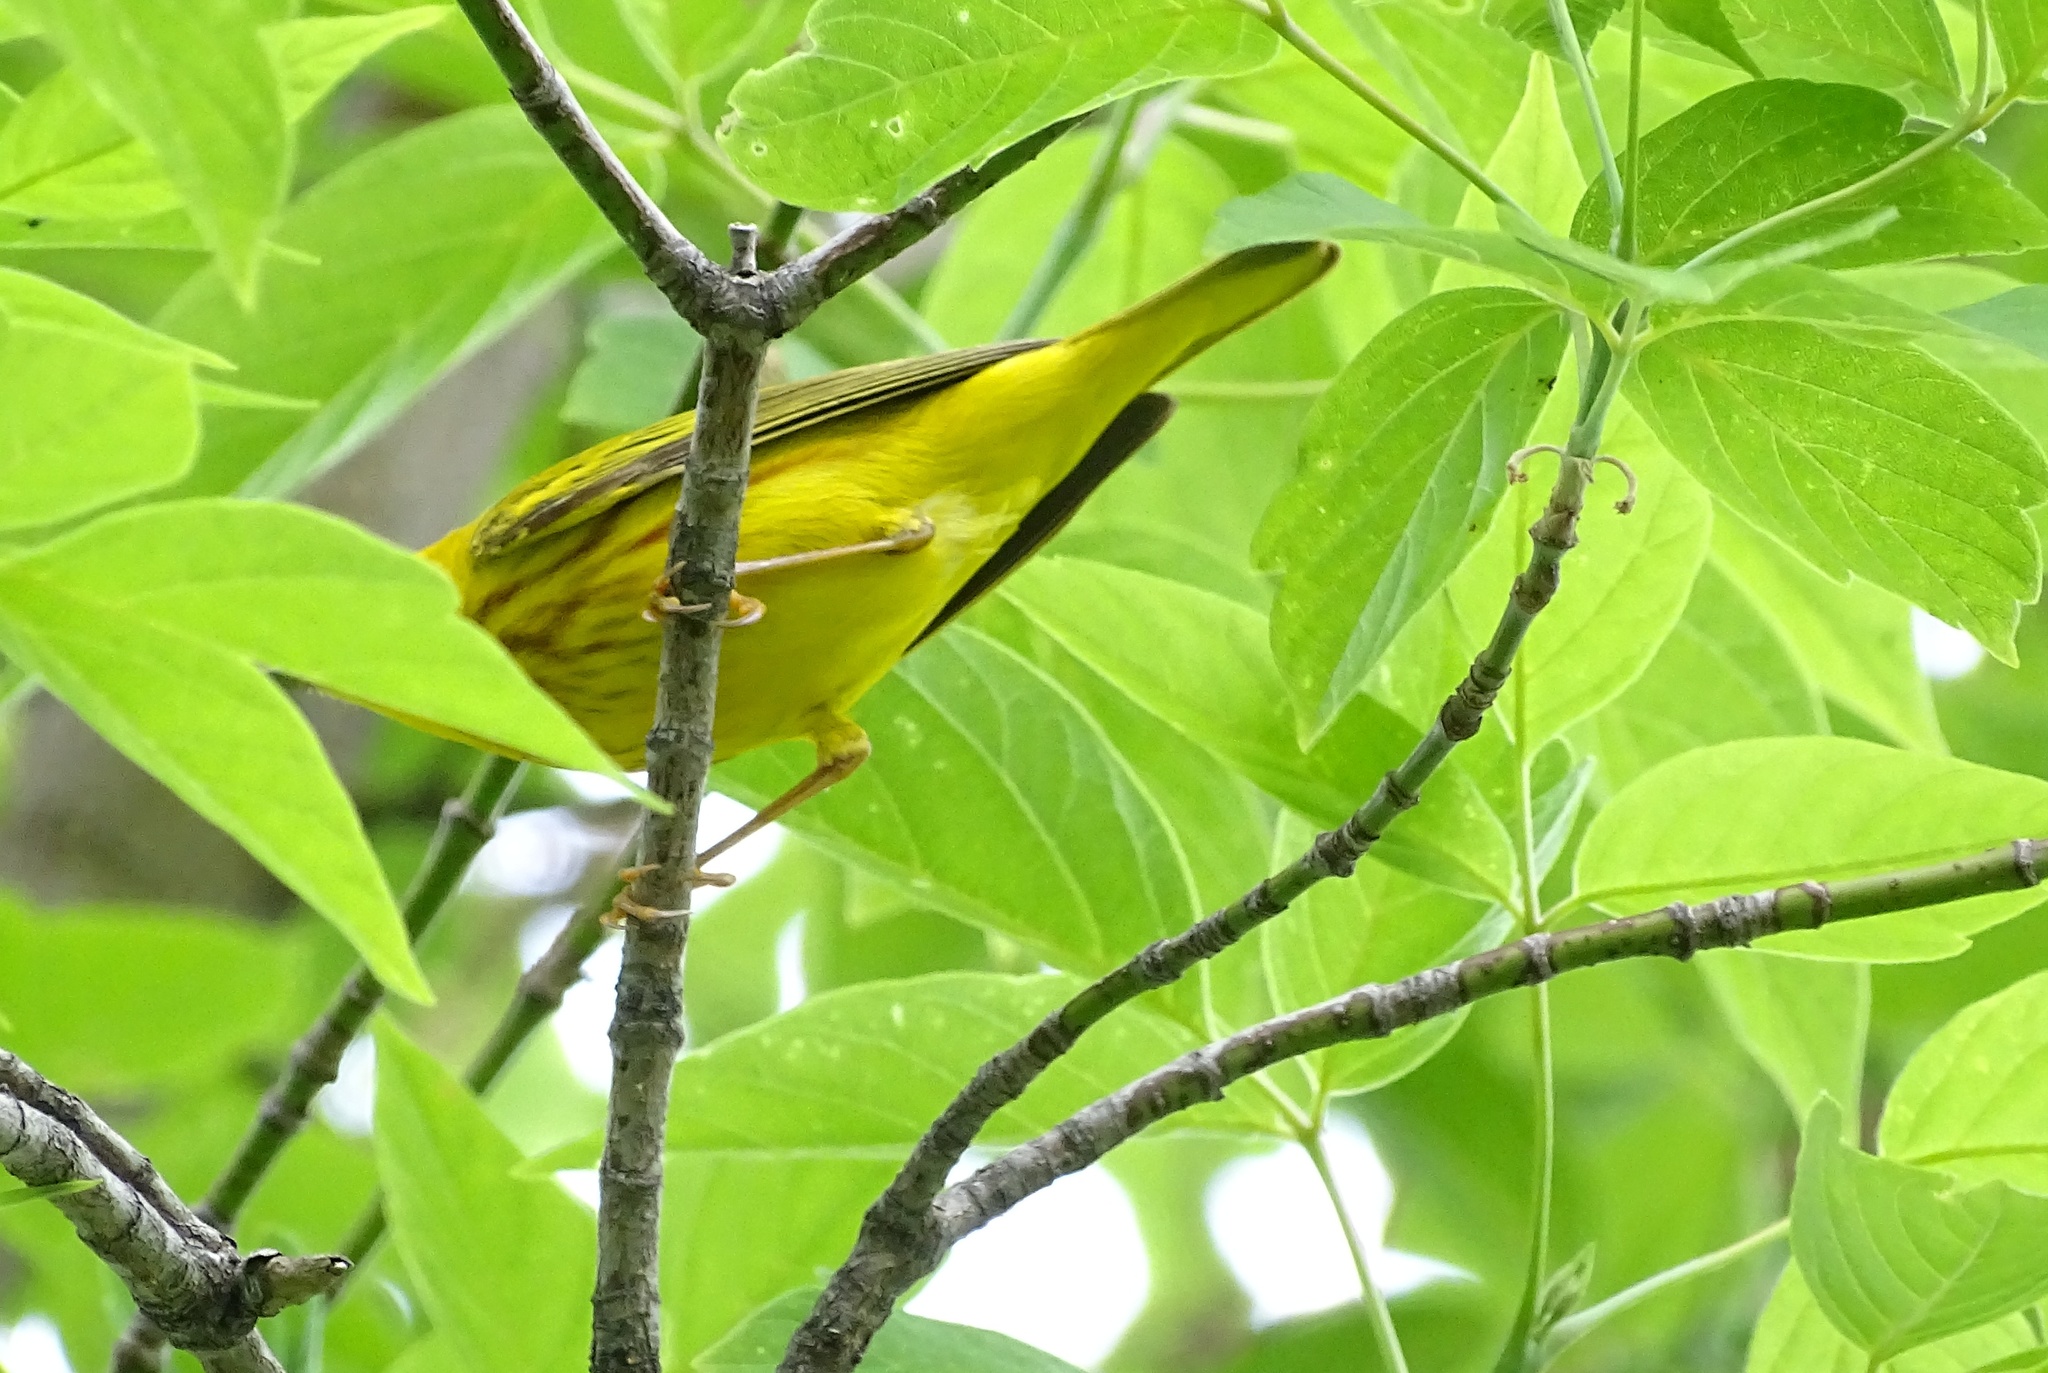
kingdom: Animalia
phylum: Chordata
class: Aves
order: Passeriformes
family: Parulidae
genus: Setophaga
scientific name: Setophaga petechia
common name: Yellow warbler
